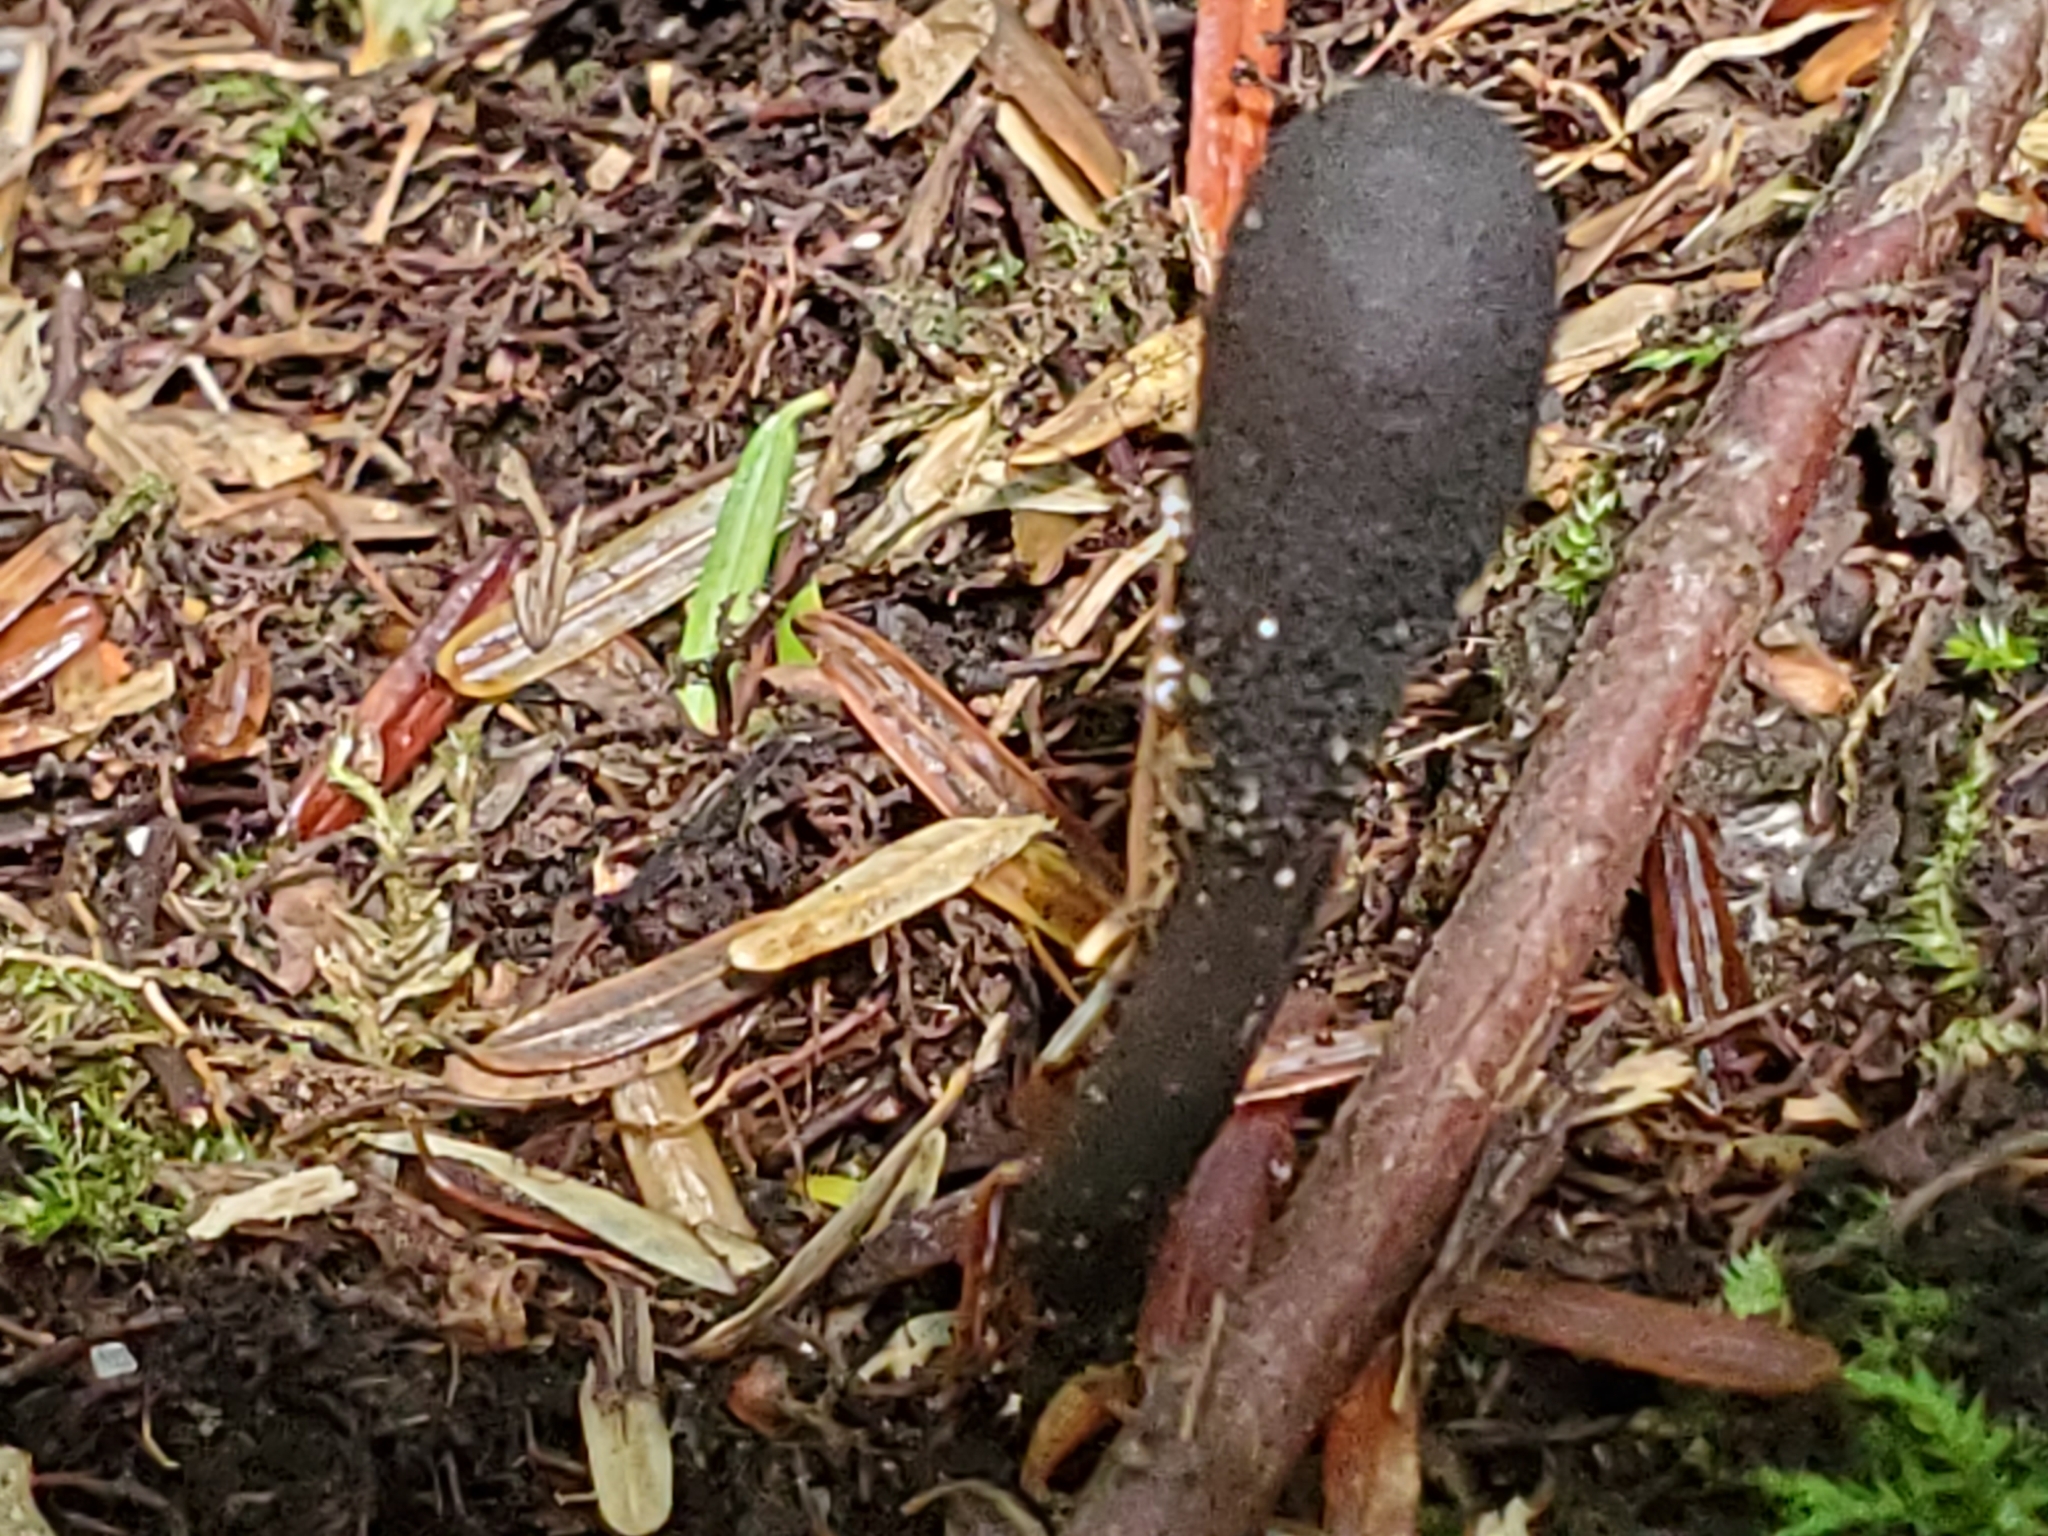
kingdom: Fungi
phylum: Ascomycota
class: Sordariomycetes
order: Hypocreales
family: Ophiocordycipitaceae
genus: Tolypocladium
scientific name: Tolypocladium ophioglossoides
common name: Snaketongue truffleclub
